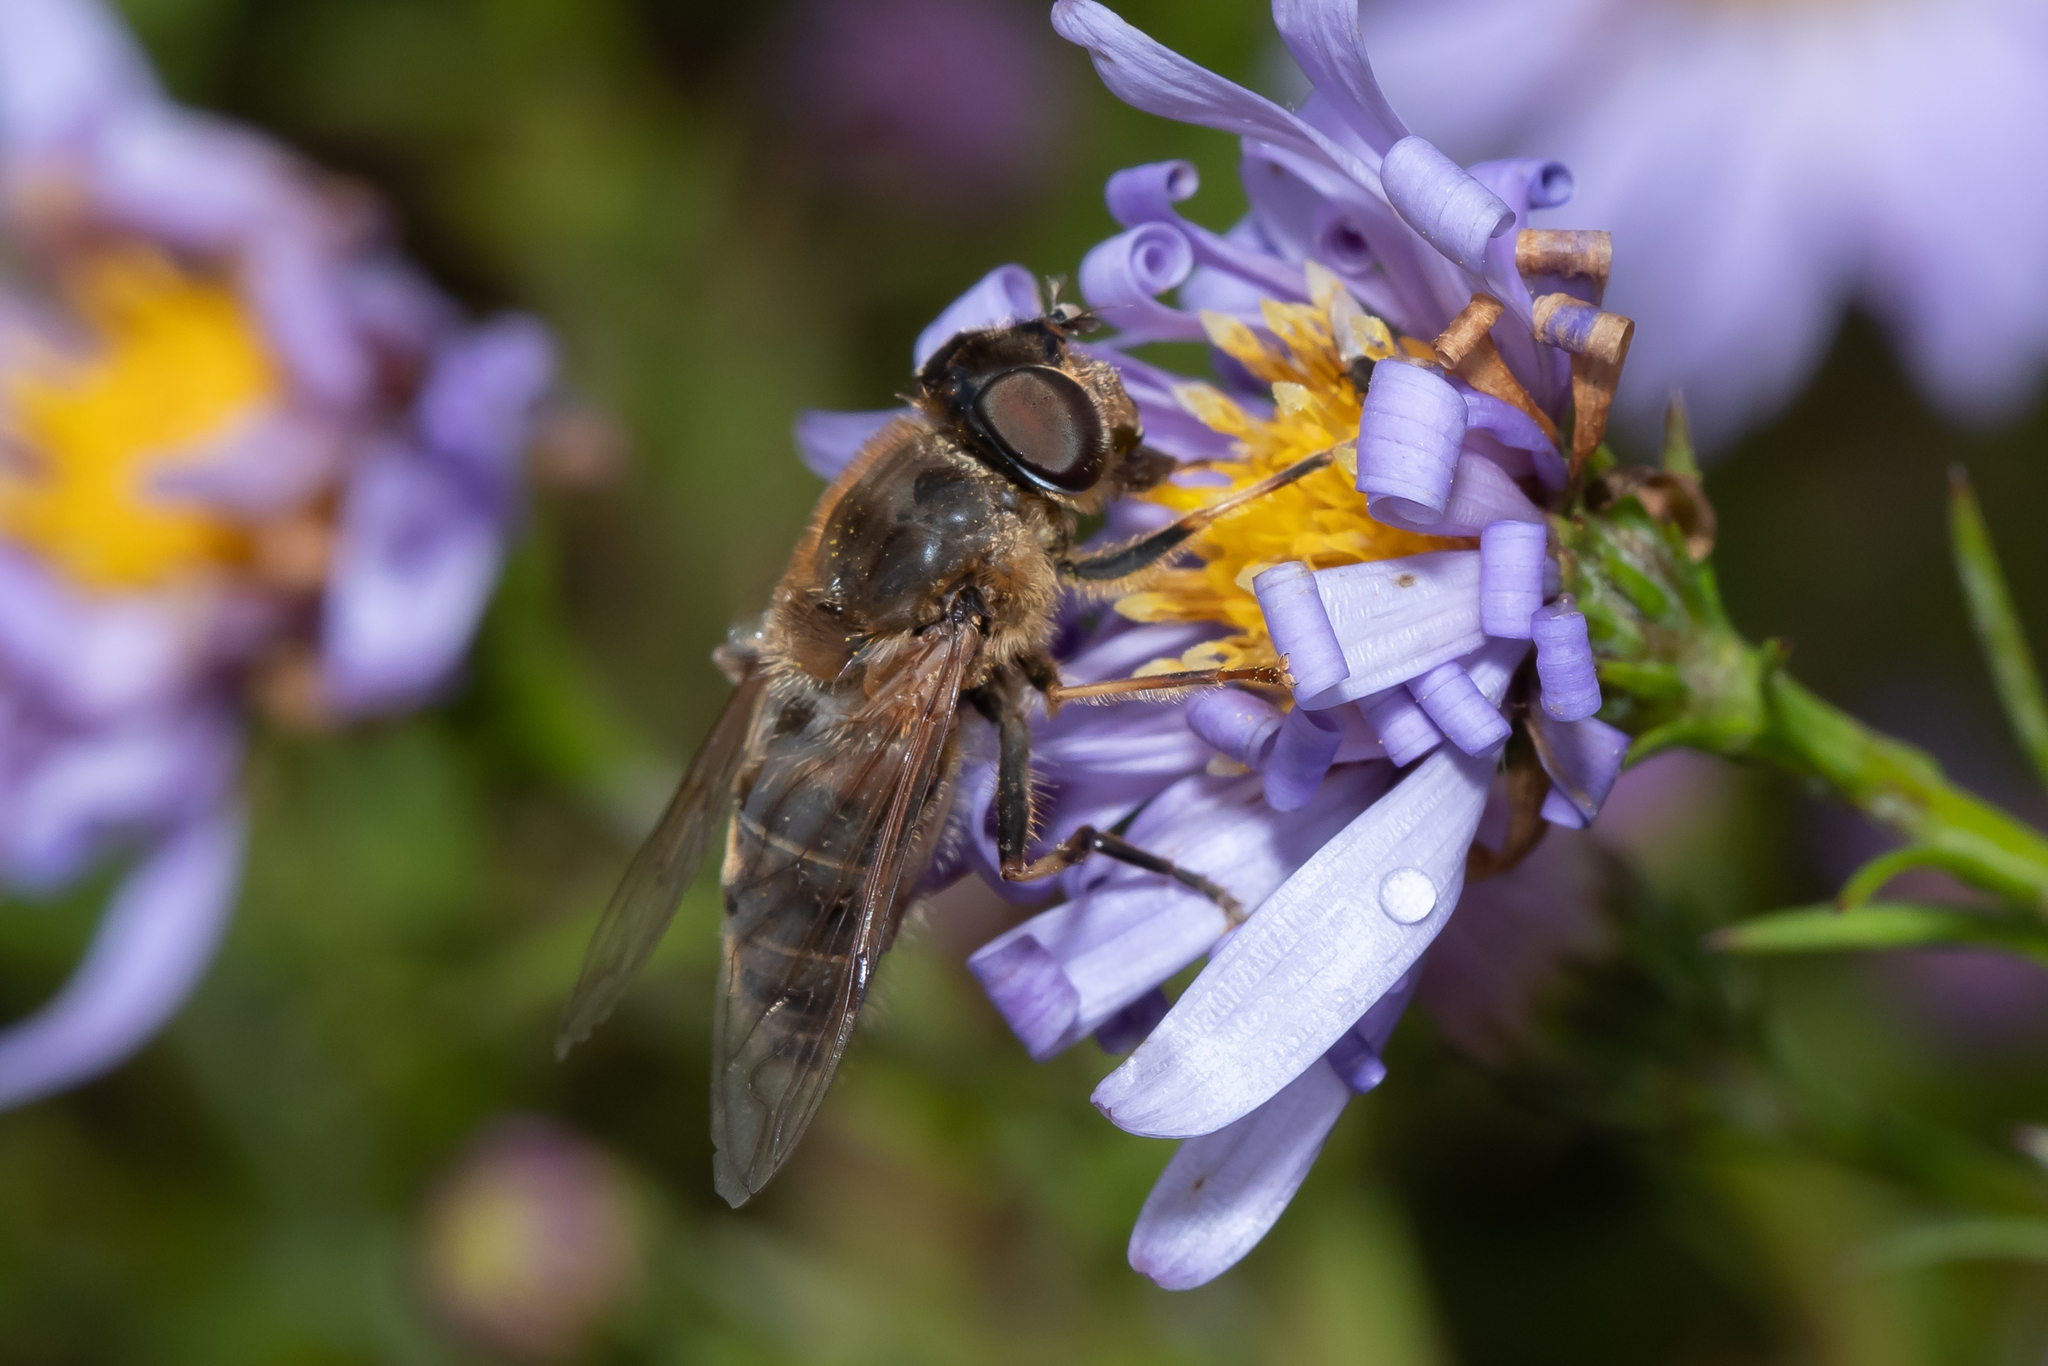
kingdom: Animalia
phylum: Arthropoda
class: Insecta
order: Diptera
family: Syrphidae
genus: Eristalis
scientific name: Eristalis pertinax
